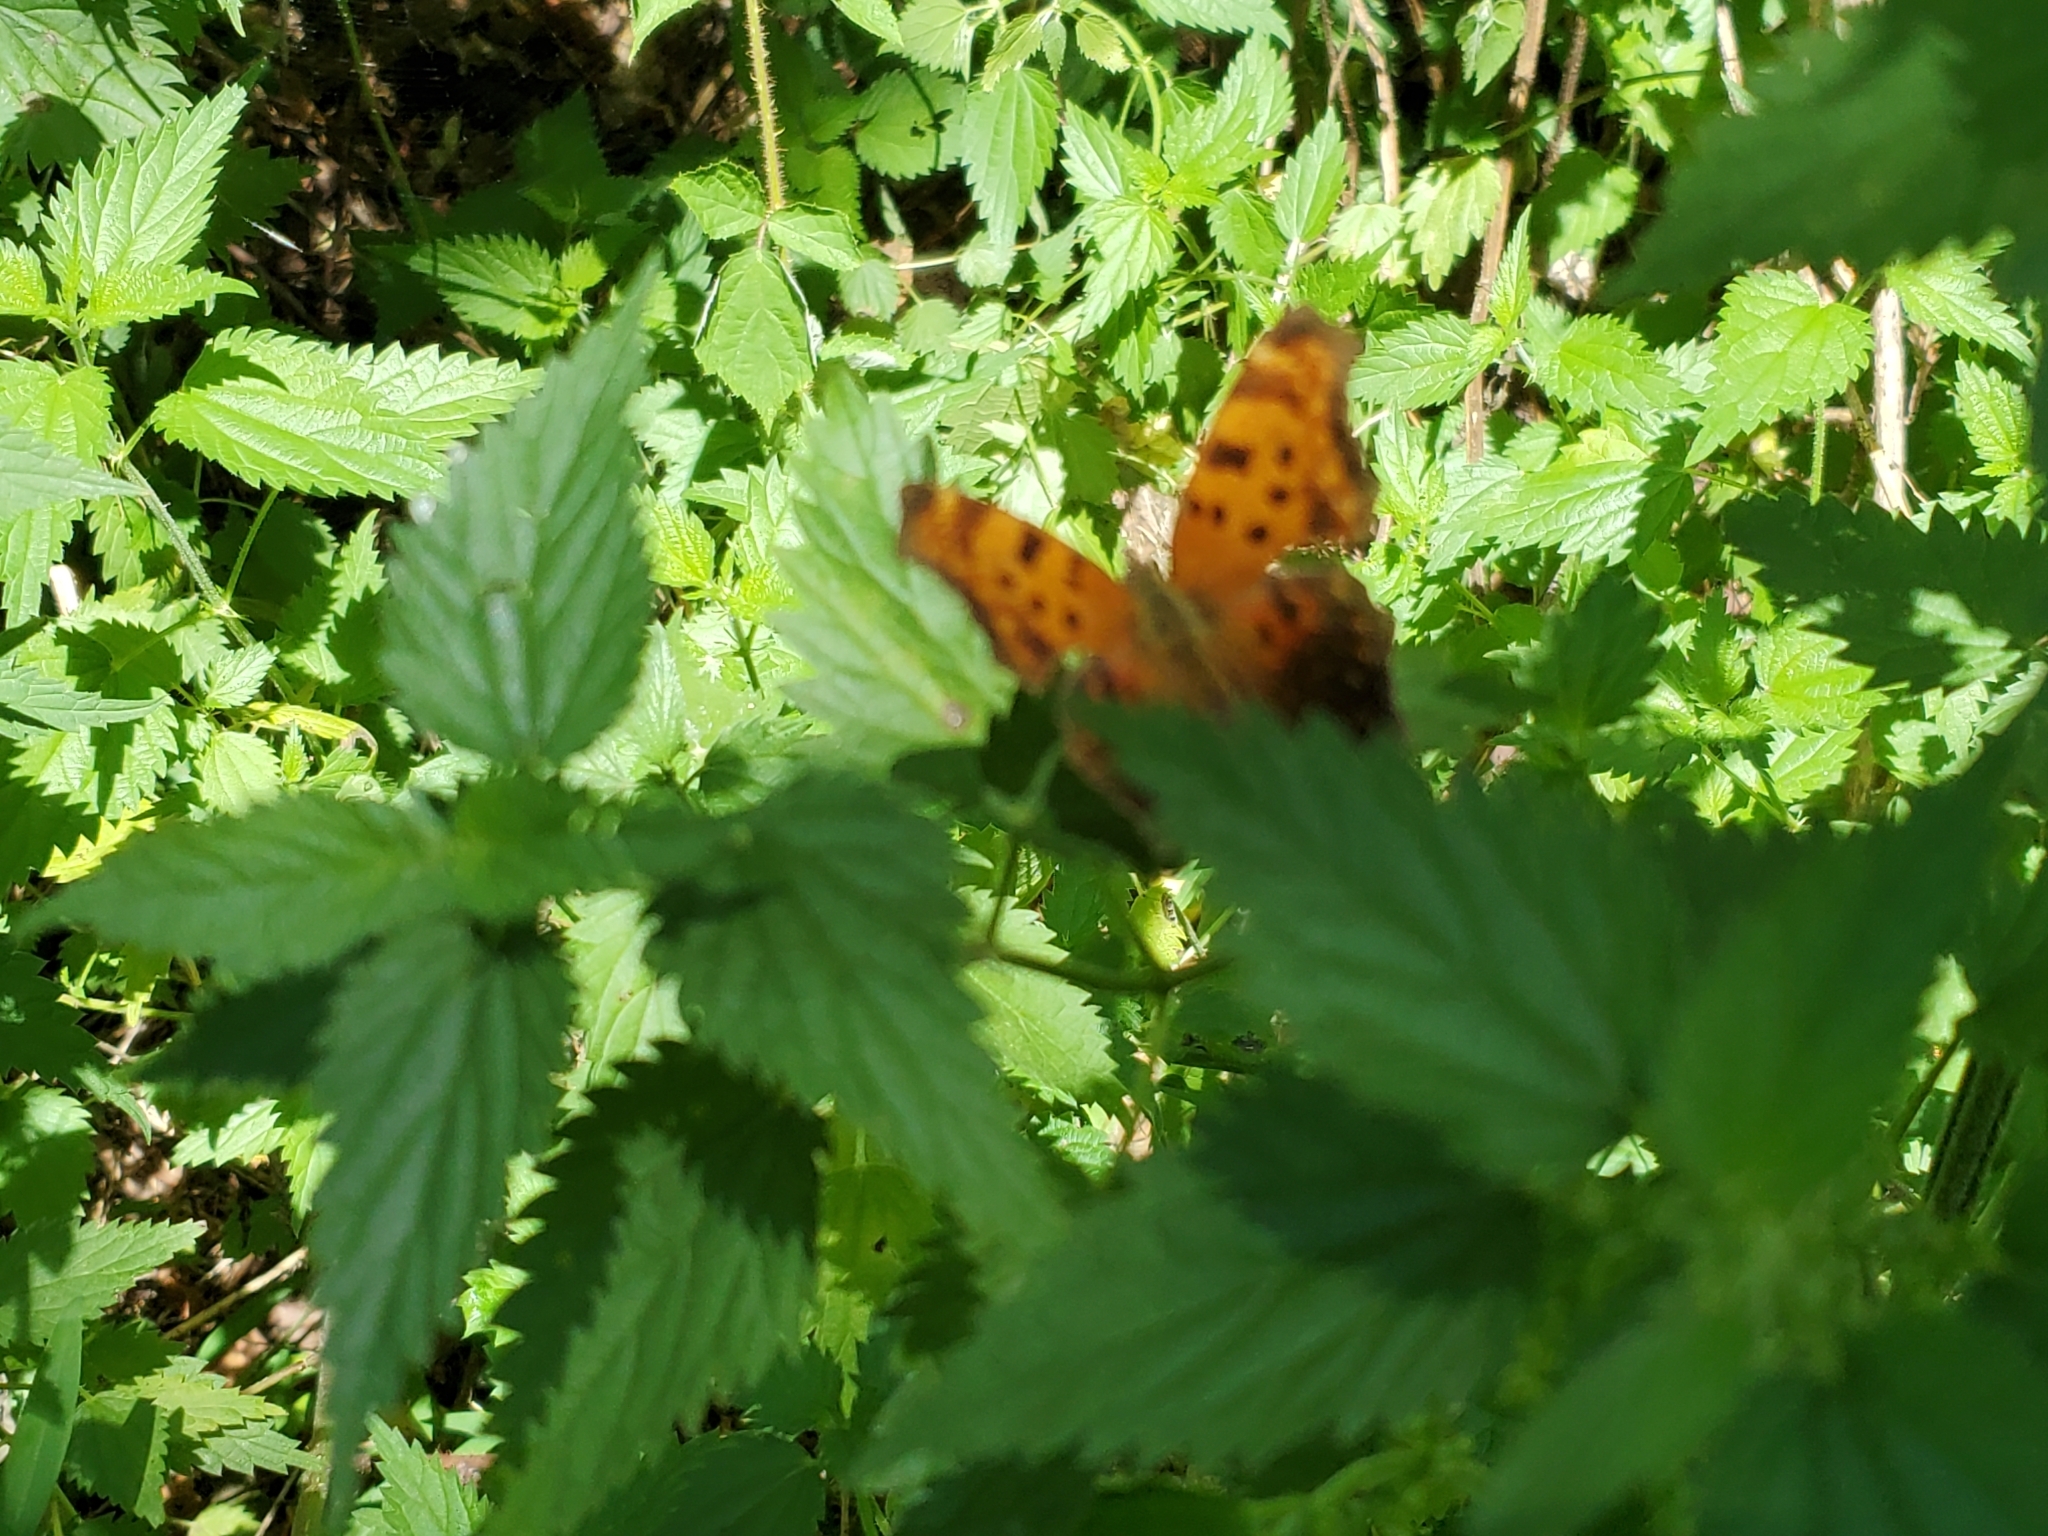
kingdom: Animalia
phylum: Arthropoda
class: Insecta
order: Lepidoptera
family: Nymphalidae
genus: Polygonia
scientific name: Polygonia comma
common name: Eastern comma
